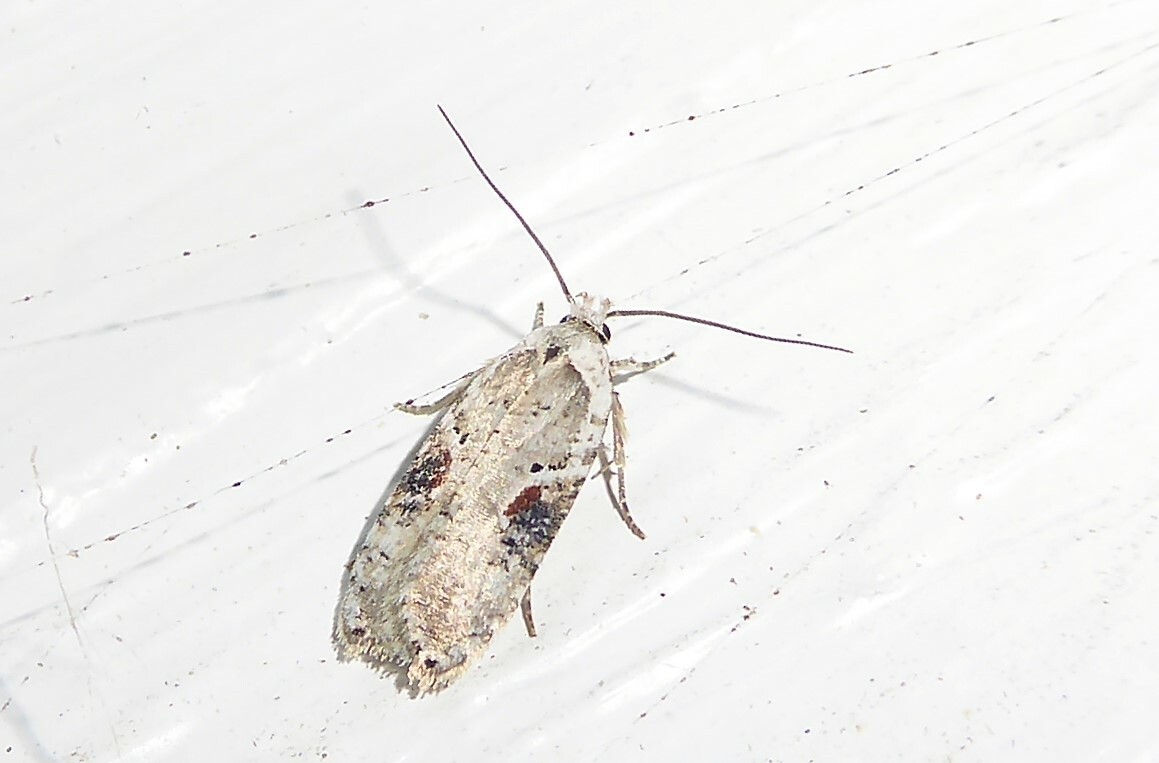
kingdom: Animalia
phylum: Arthropoda
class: Insecta
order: Lepidoptera
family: Depressariidae
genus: Agonopterix
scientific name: Agonopterix alstroemeriana
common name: Moth
